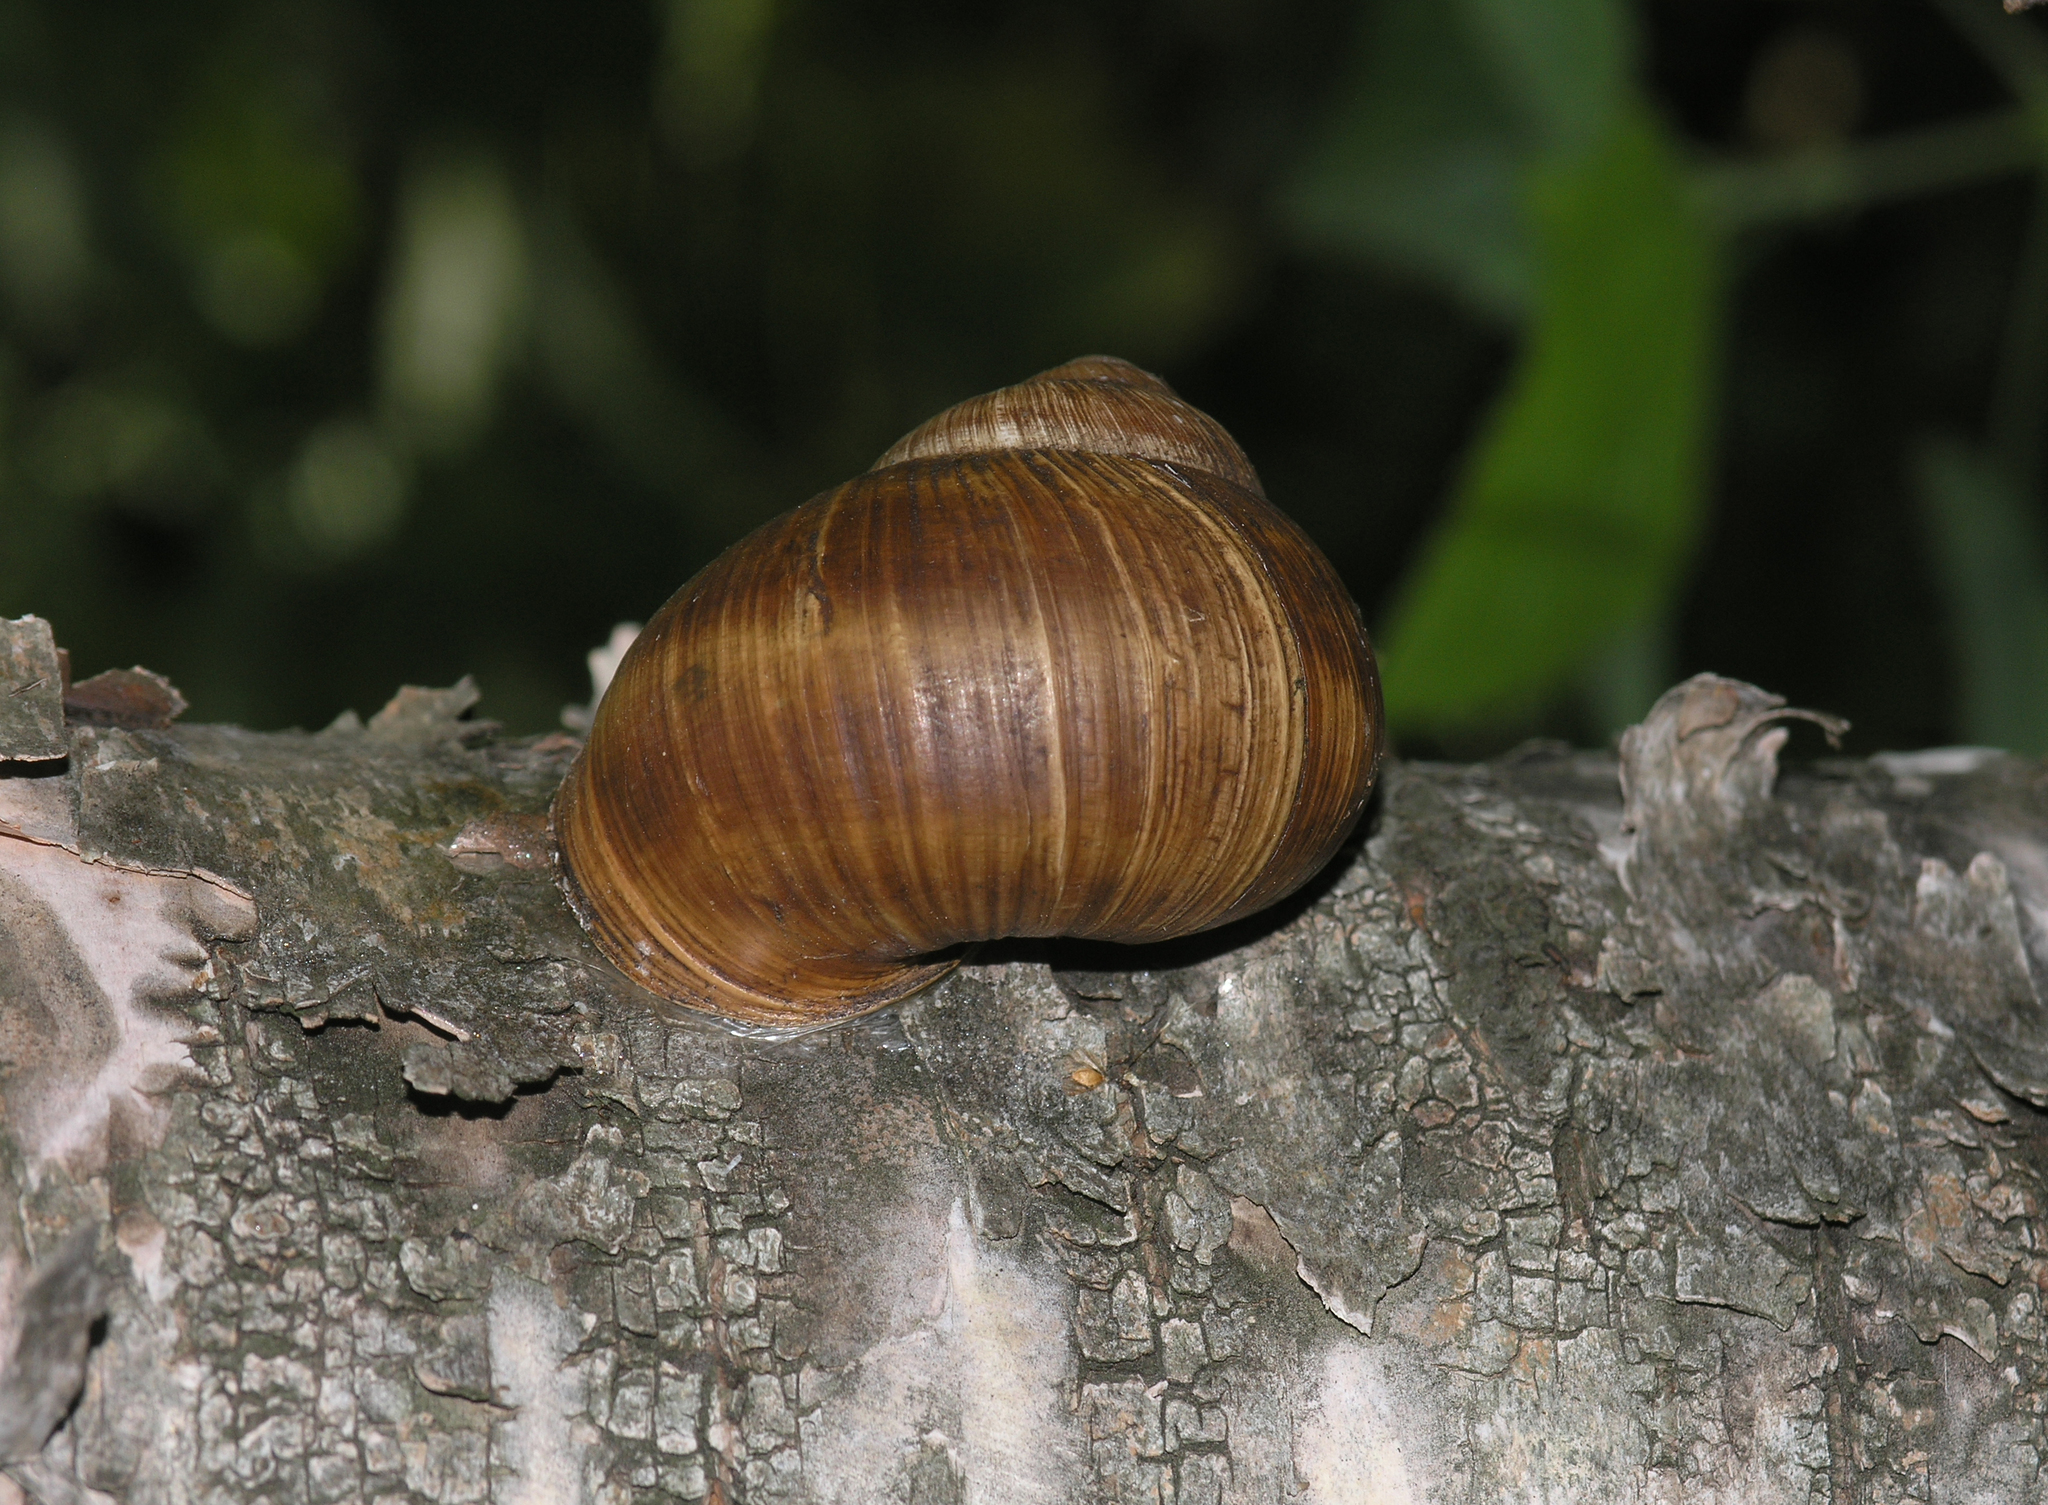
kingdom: Animalia
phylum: Mollusca
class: Gastropoda
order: Stylommatophora
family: Helicidae
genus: Helix
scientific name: Helix pomatia
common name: Roman snail
